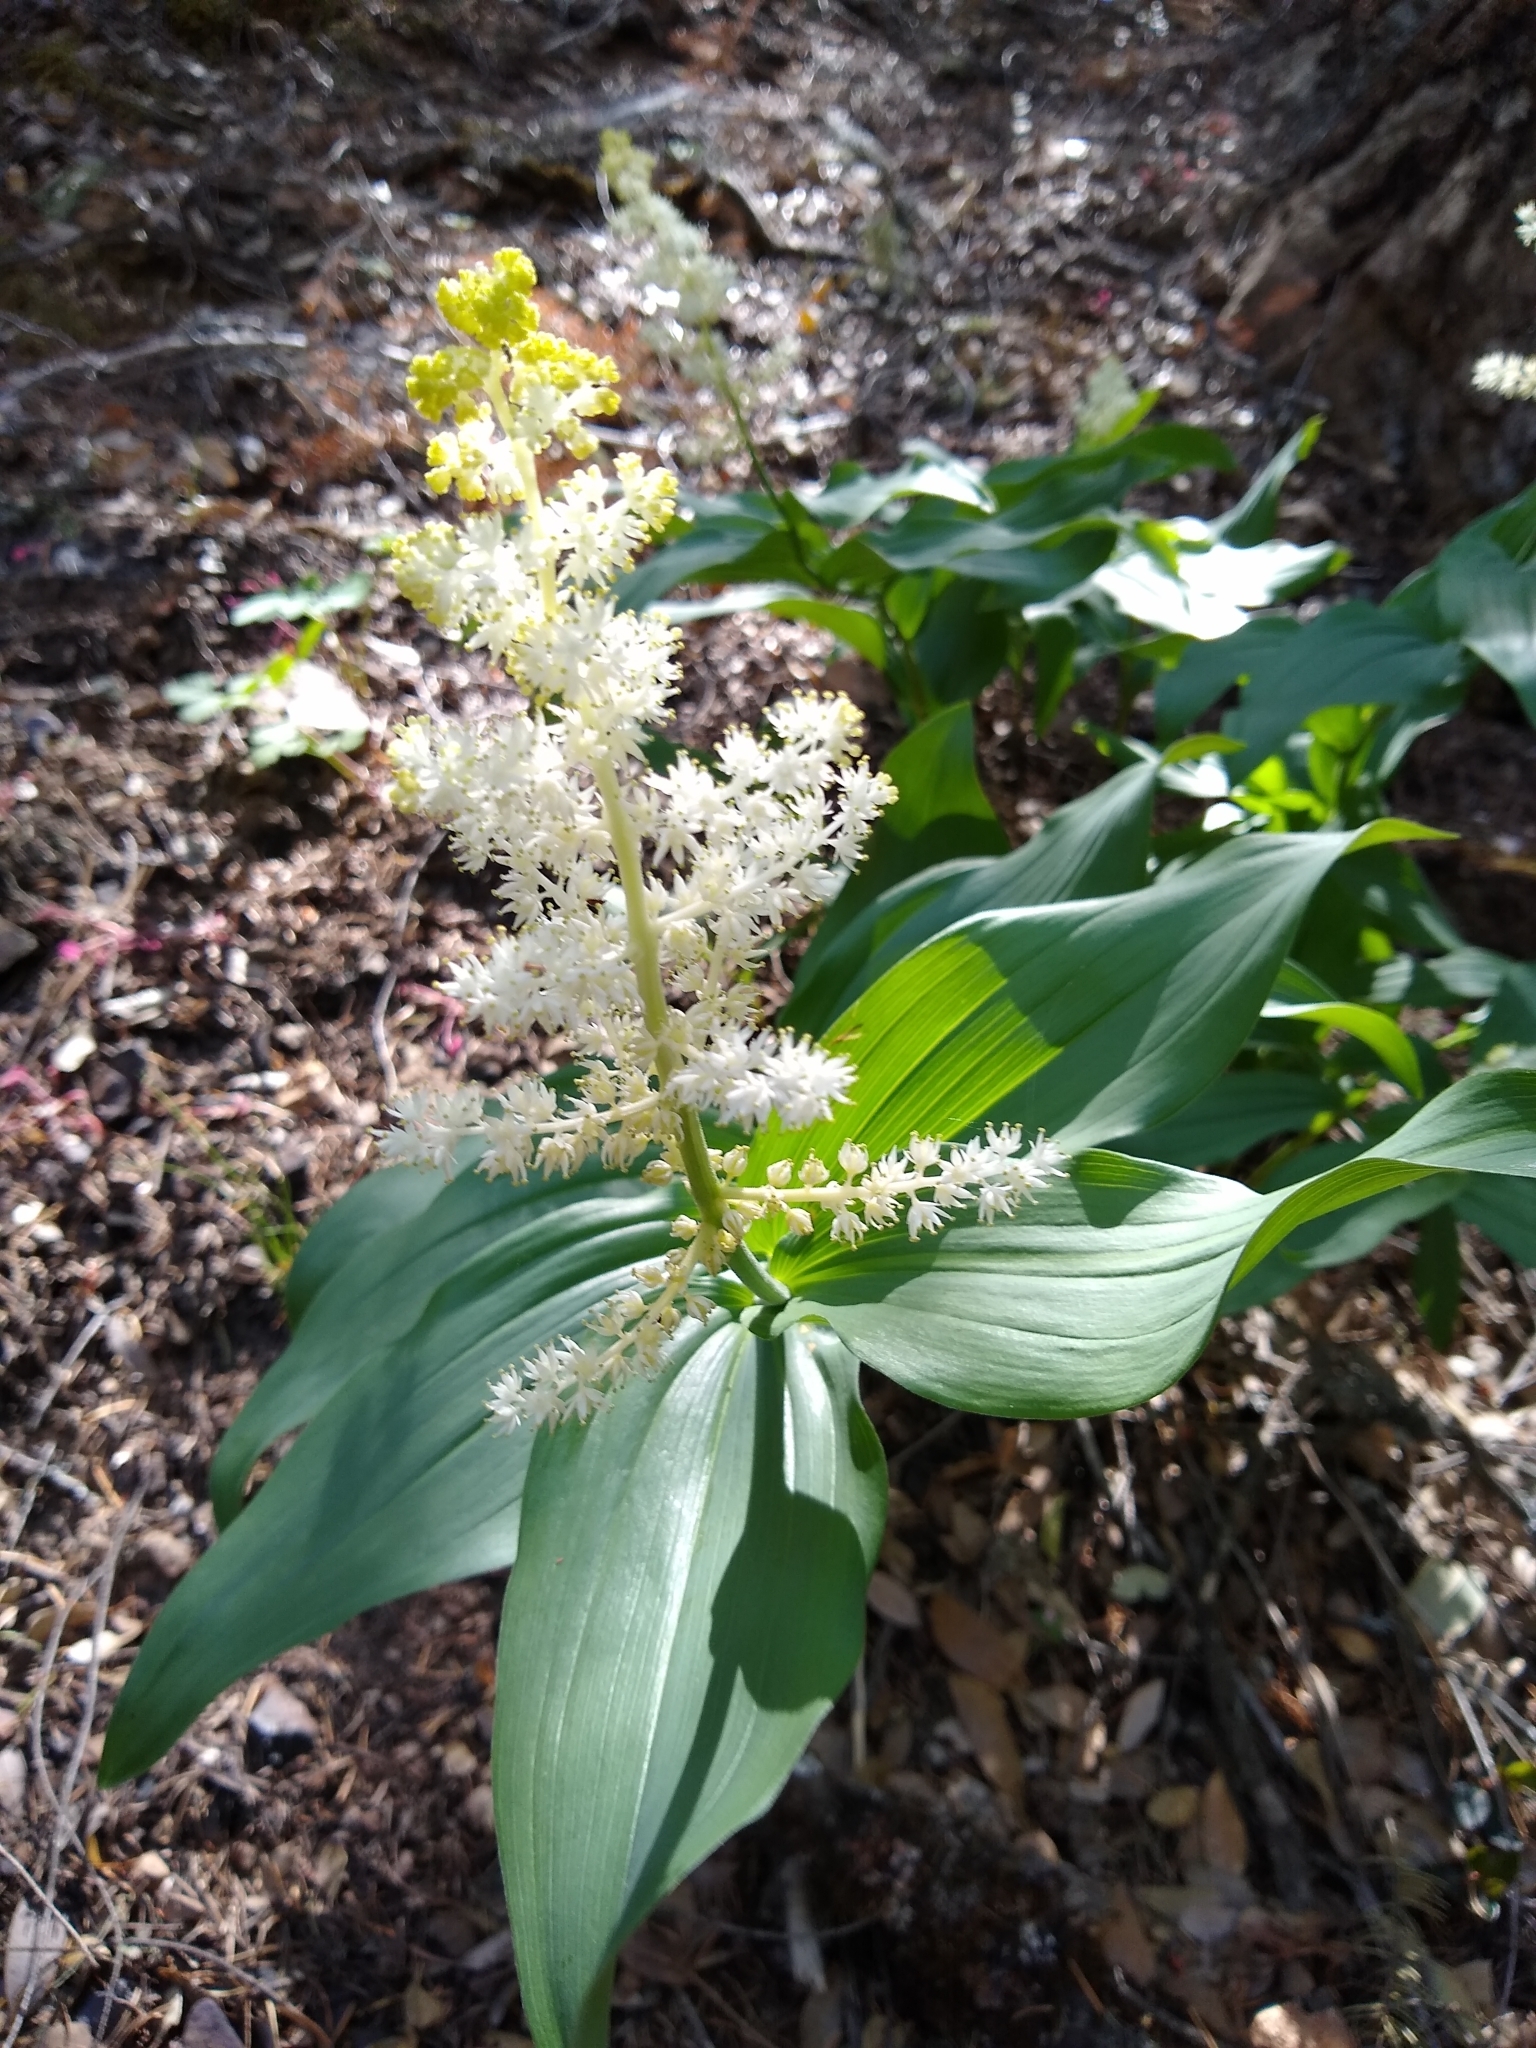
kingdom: Plantae
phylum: Tracheophyta
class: Liliopsida
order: Asparagales
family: Asparagaceae
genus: Maianthemum
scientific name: Maianthemum racemosum
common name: False spikenard
